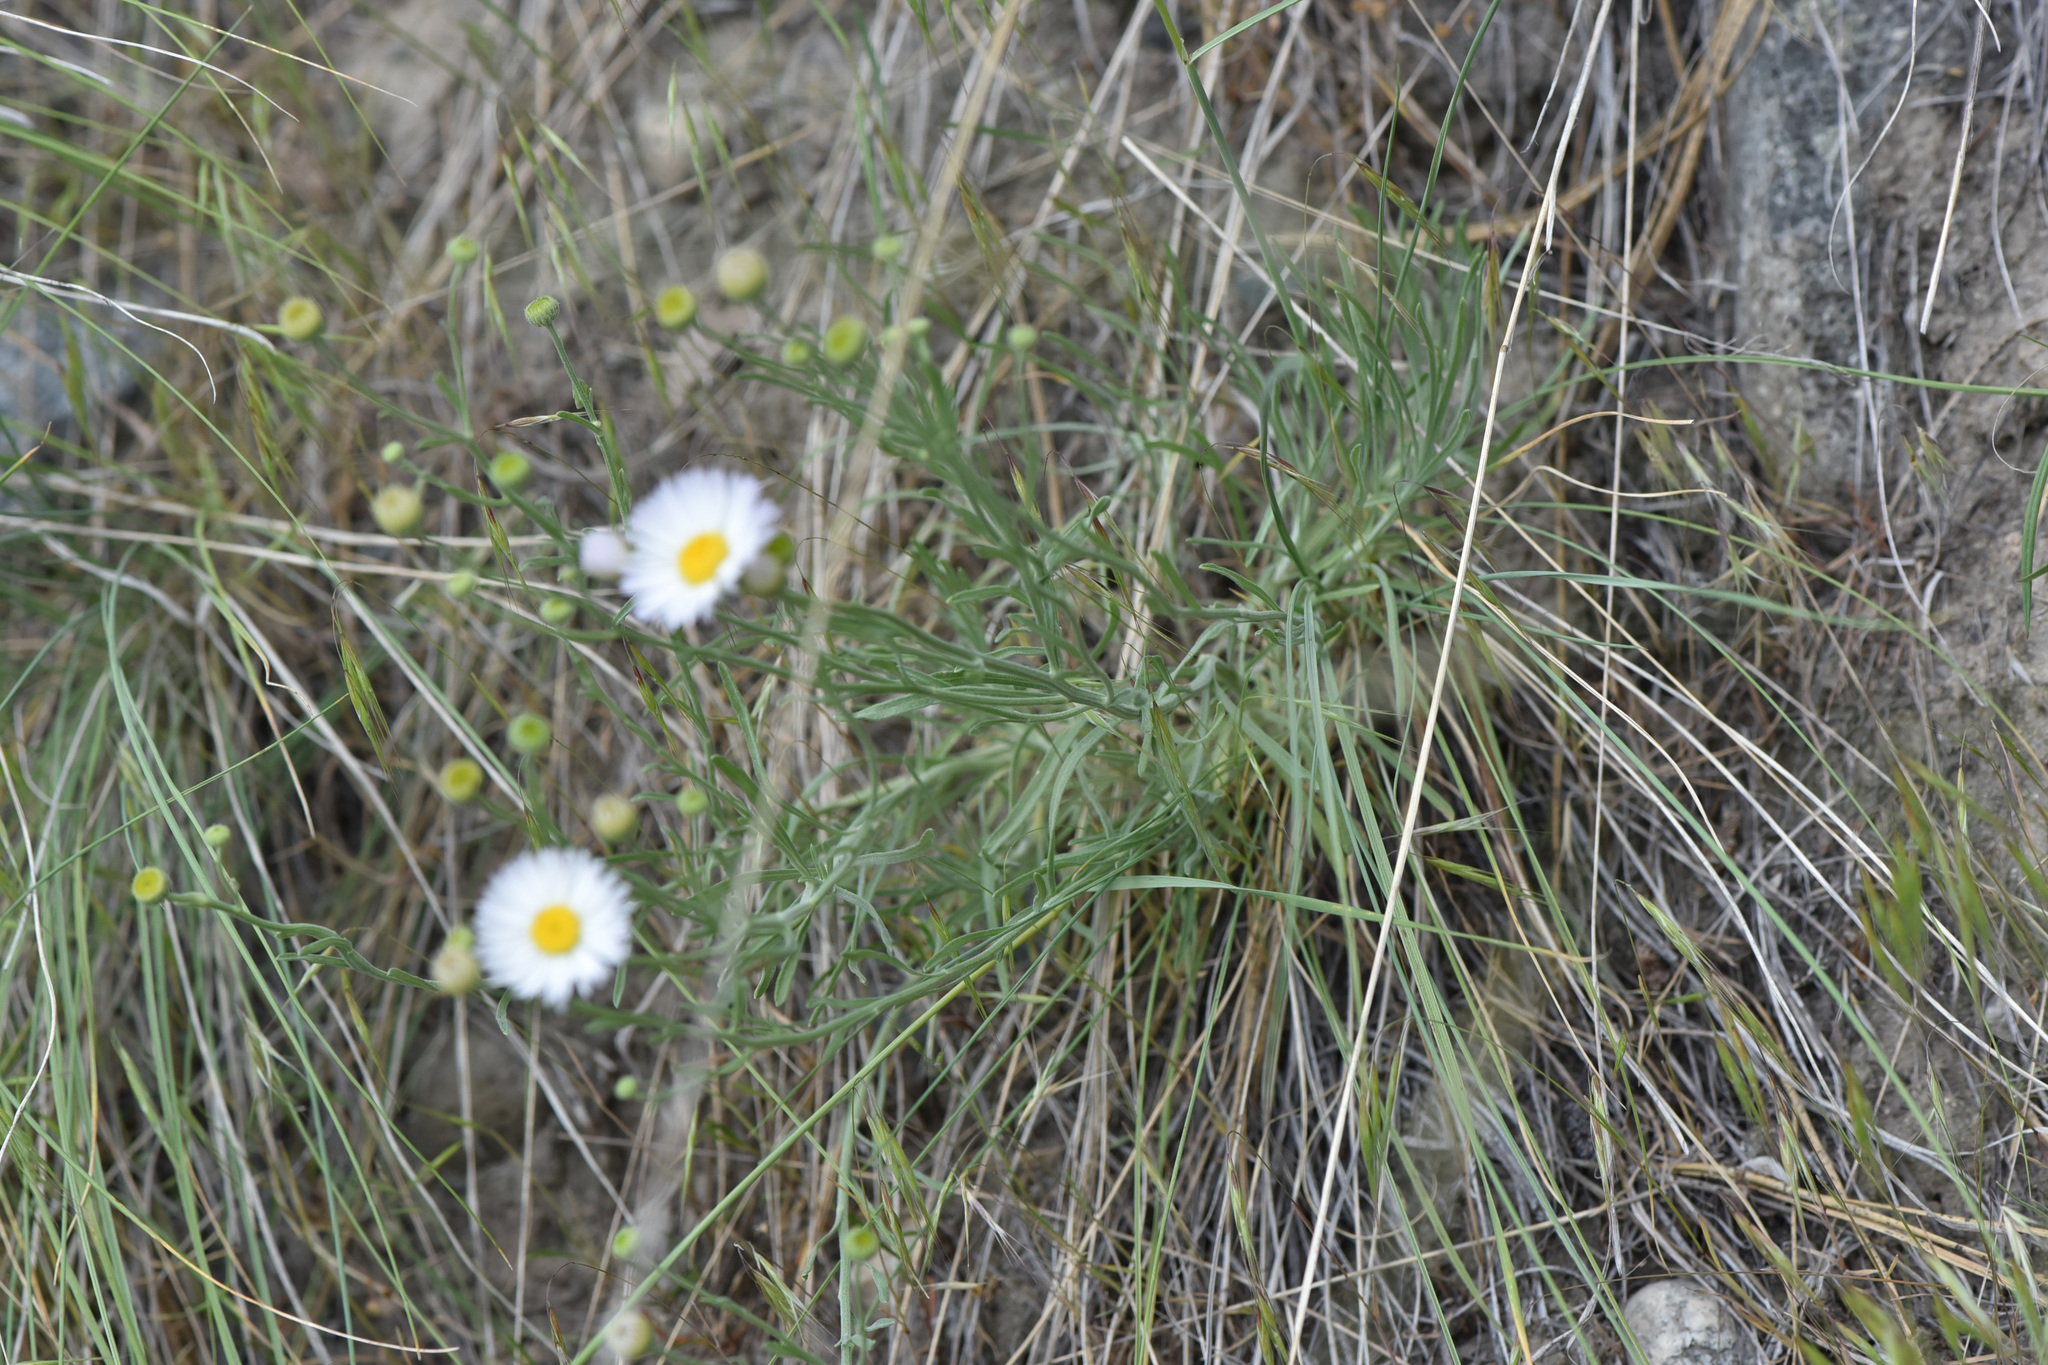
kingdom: Plantae
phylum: Tracheophyta
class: Magnoliopsida
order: Asterales
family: Asteraceae
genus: Erigeron
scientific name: Erigeron filifolius
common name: Threadleaf fleabane
